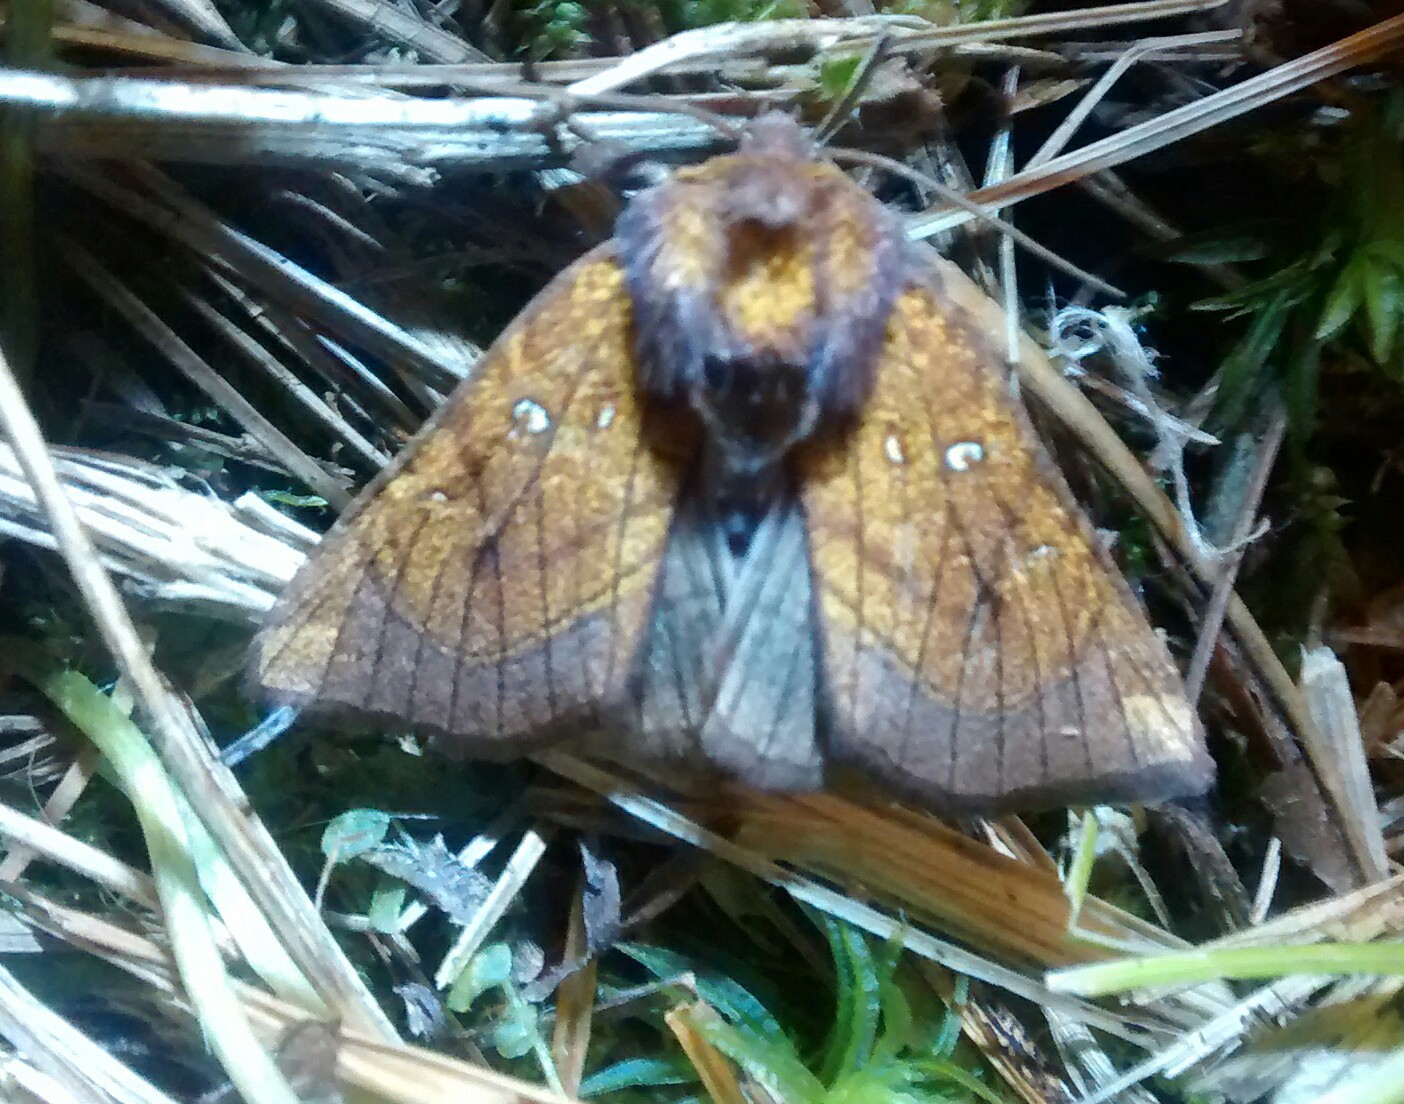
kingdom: Animalia
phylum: Arthropoda
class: Insecta
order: Lepidoptera
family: Noctuidae
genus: Papaipema
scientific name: Papaipema inquaesita
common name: Sensitive fern borer moth
